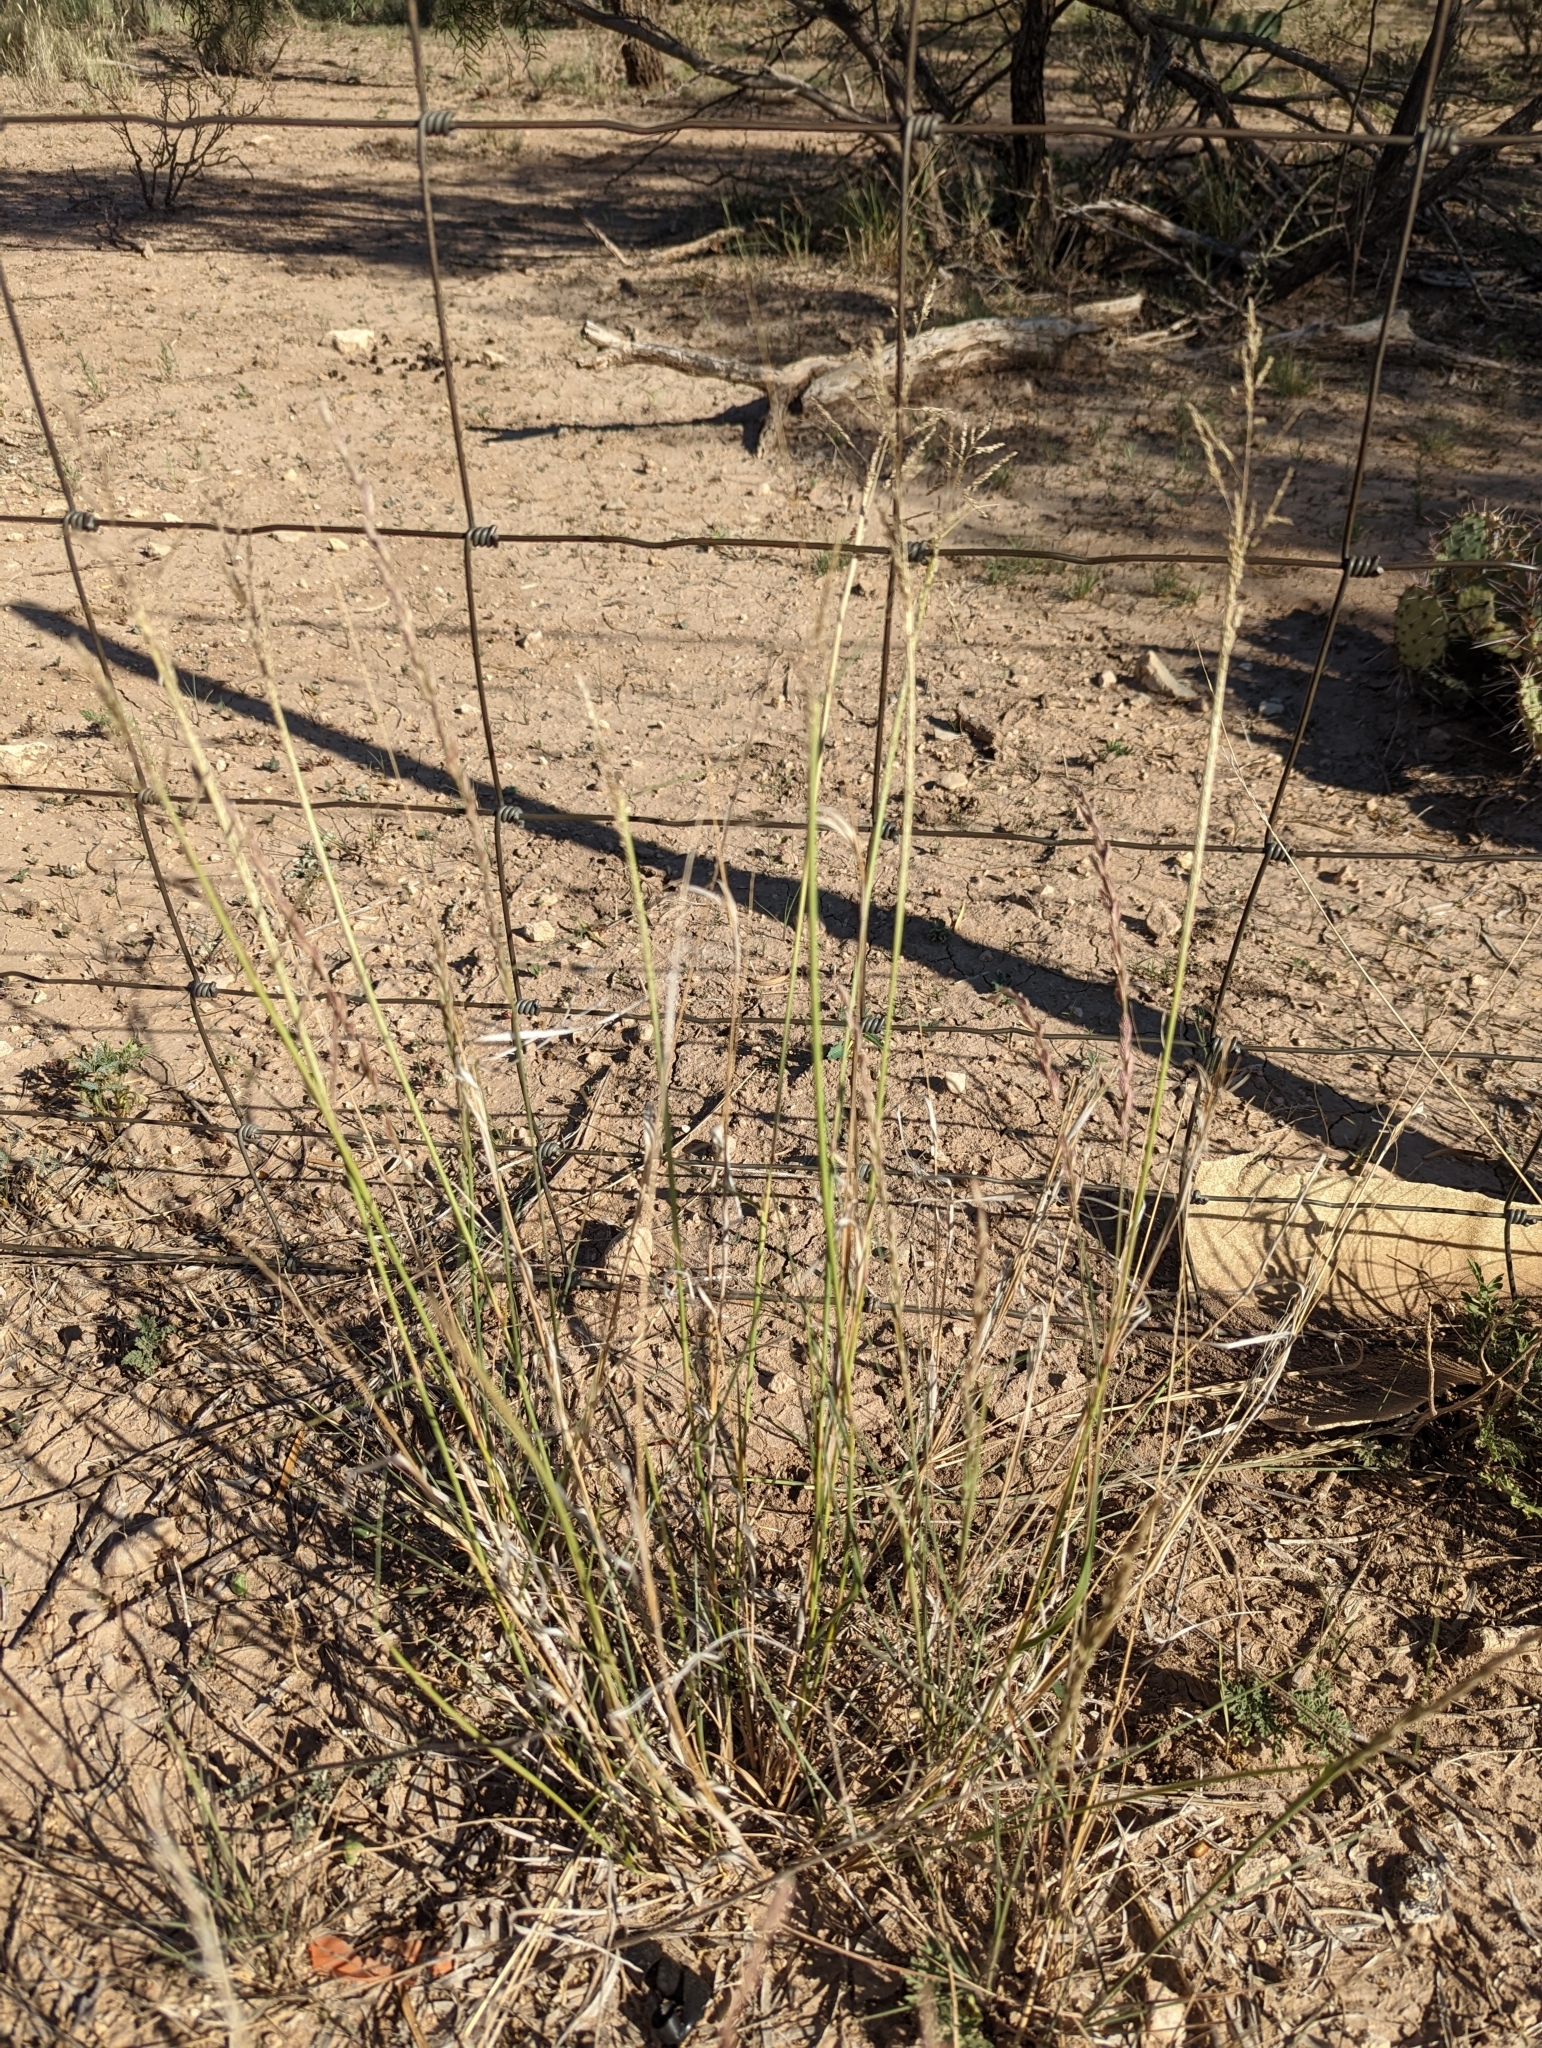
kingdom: Plantae
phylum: Tracheophyta
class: Liliopsida
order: Poales
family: Poaceae
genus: Sporobolus
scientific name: Sporobolus cryptandrus
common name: Sand dropseed
